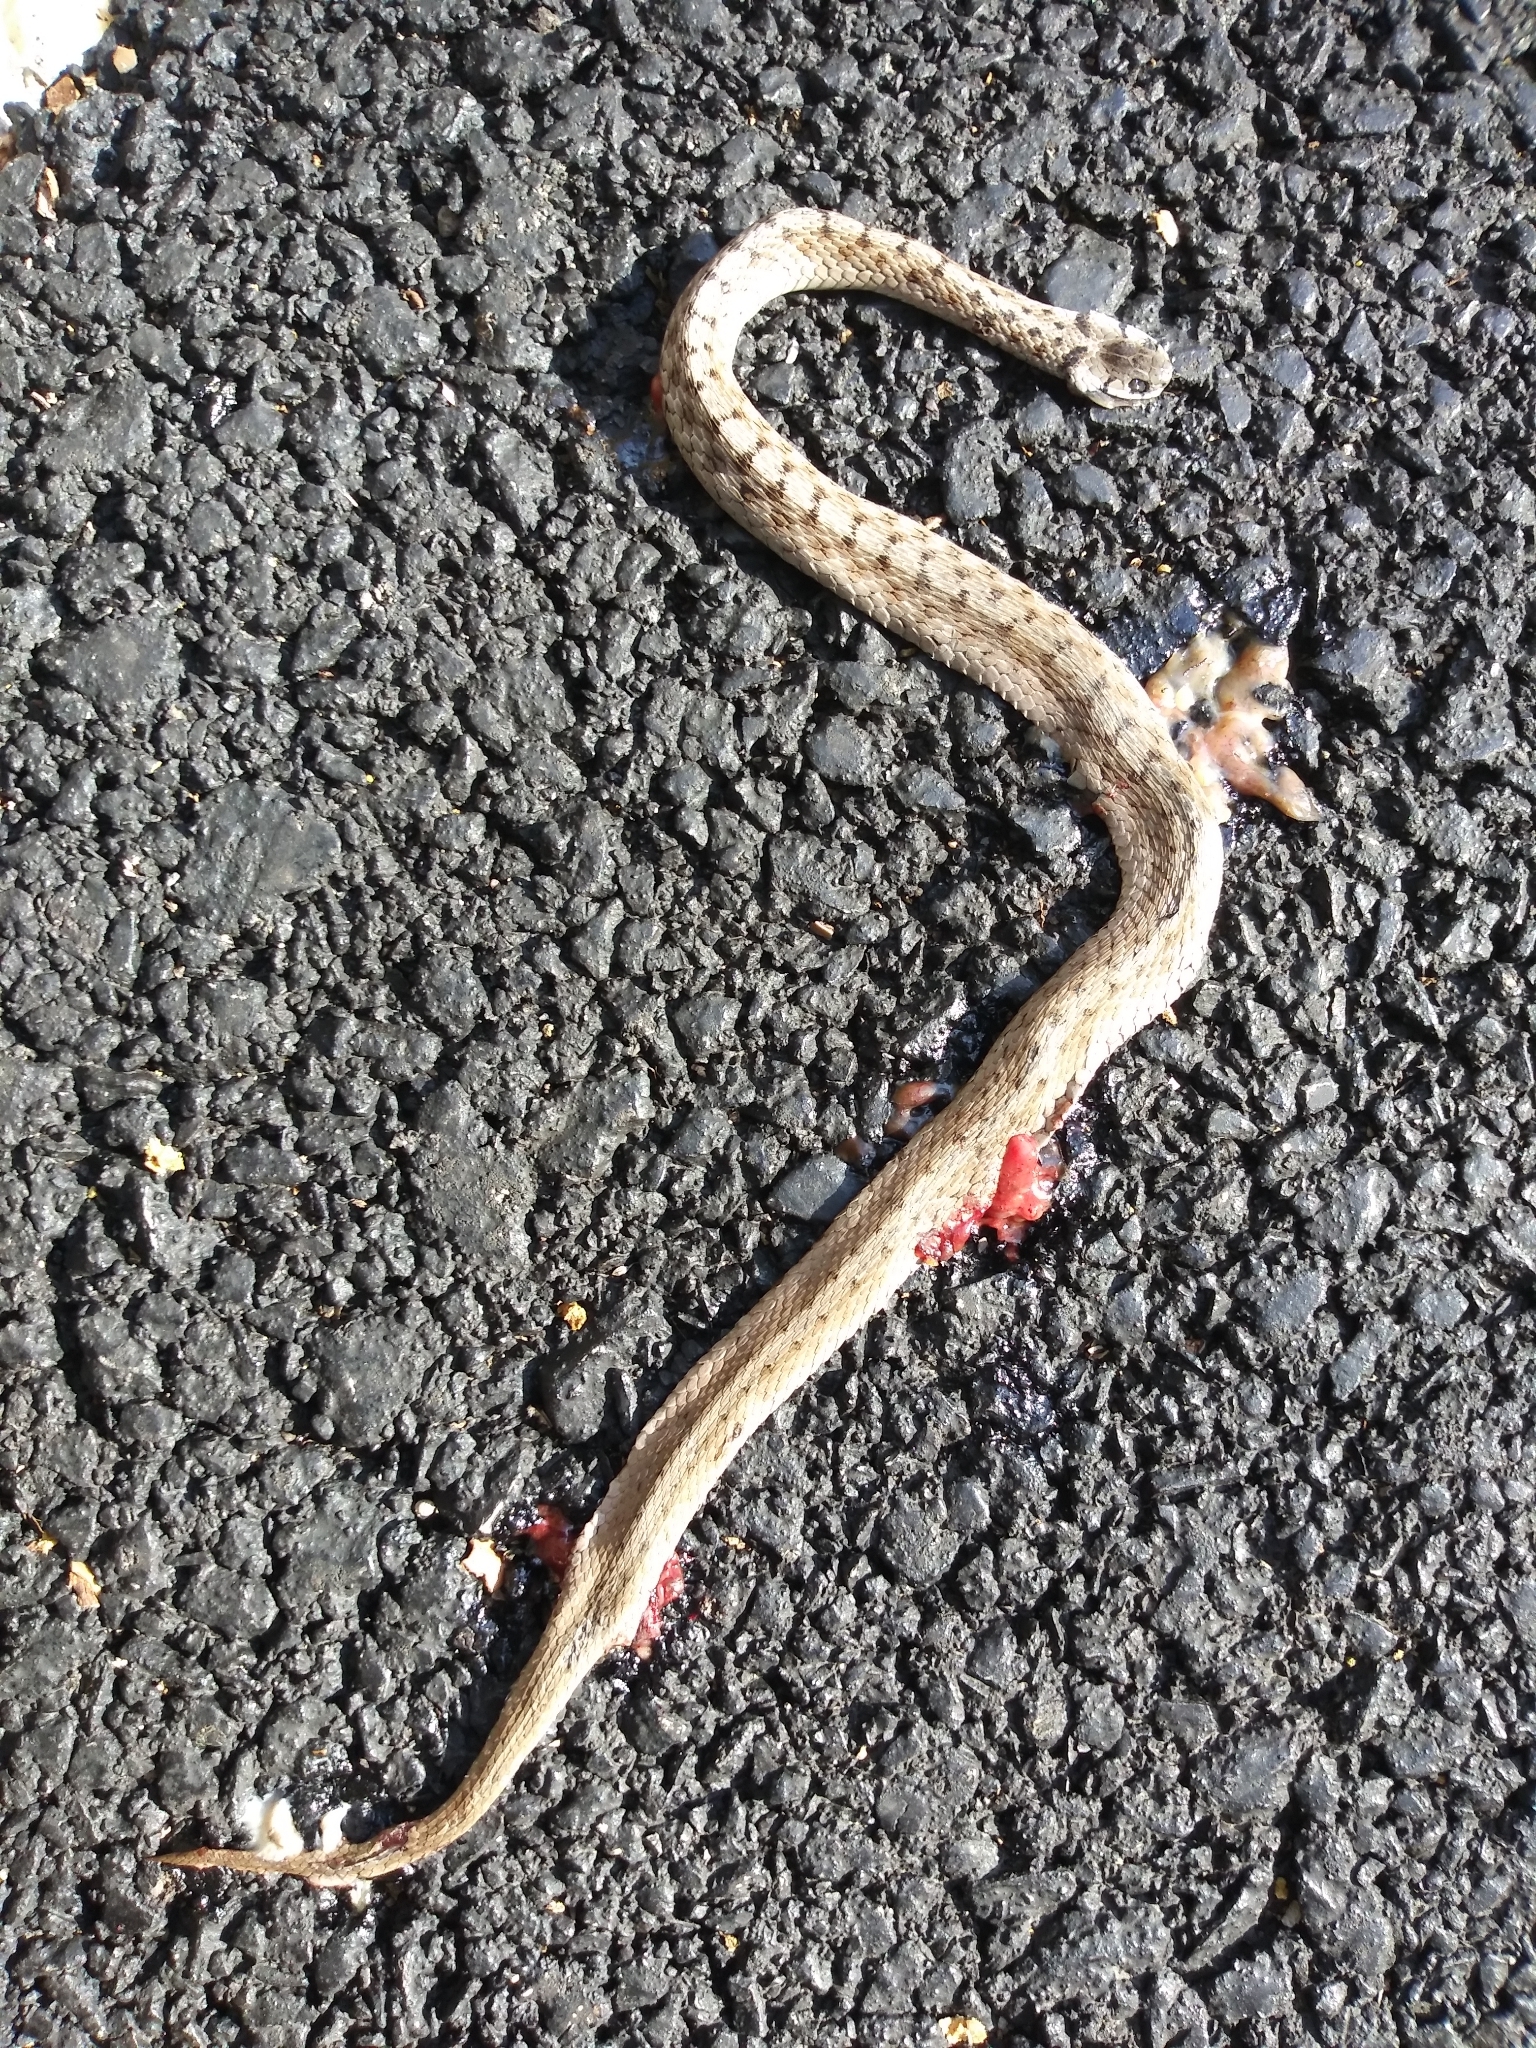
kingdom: Animalia
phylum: Chordata
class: Squamata
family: Colubridae
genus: Storeria
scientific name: Storeria dekayi
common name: (dekay’s) brown snake
